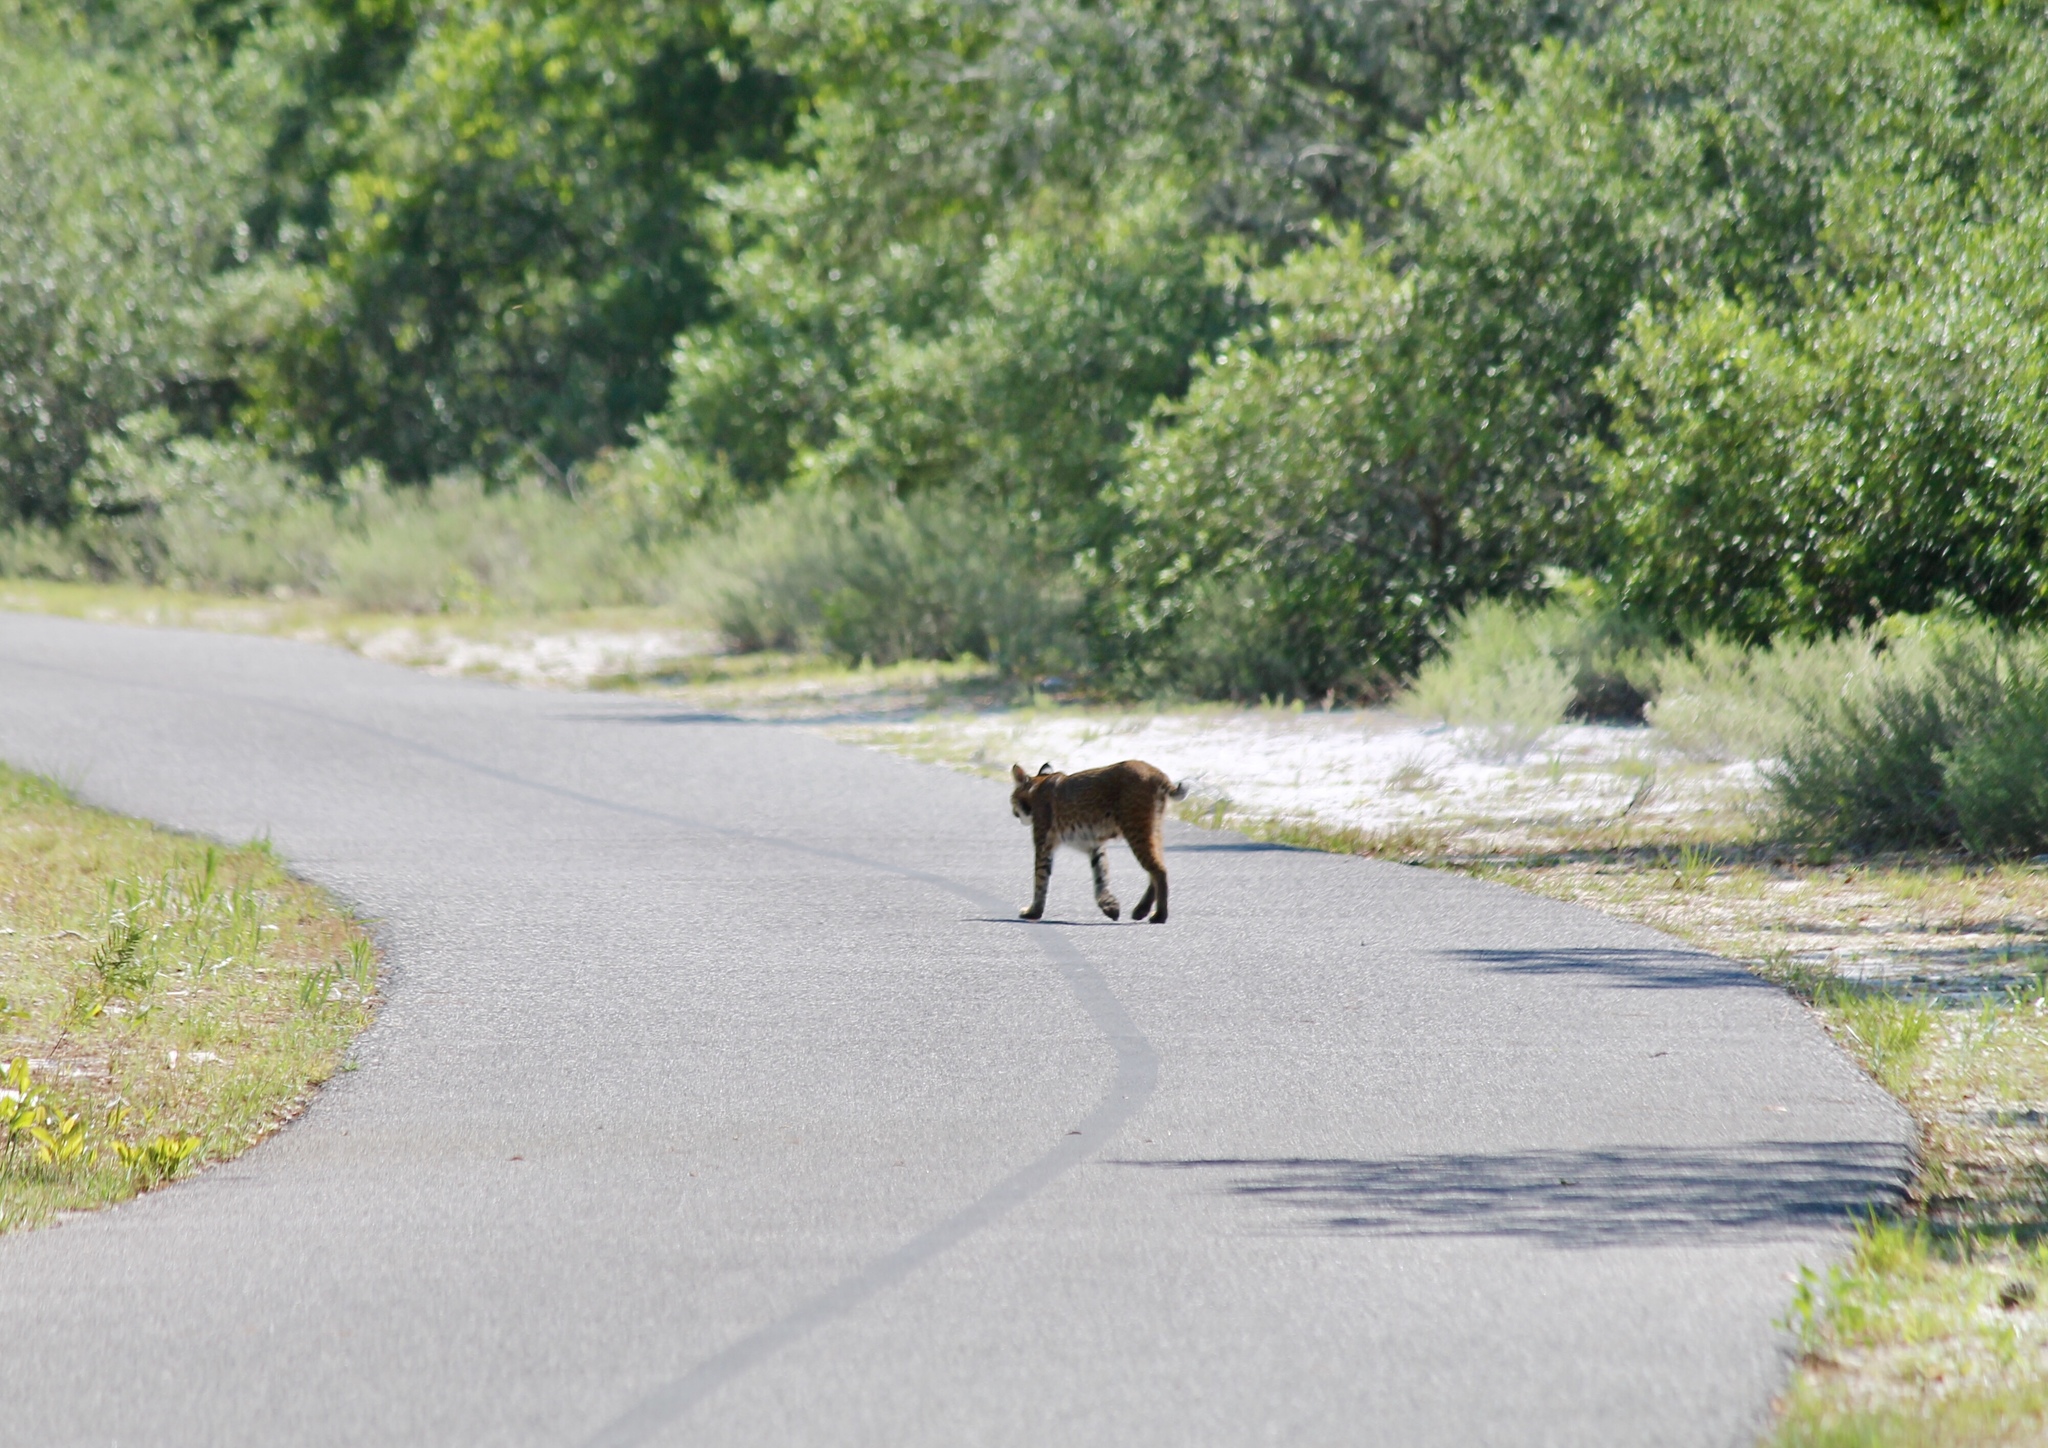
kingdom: Animalia
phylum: Chordata
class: Mammalia
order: Carnivora
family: Felidae
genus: Lynx
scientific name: Lynx rufus
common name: Bobcat
